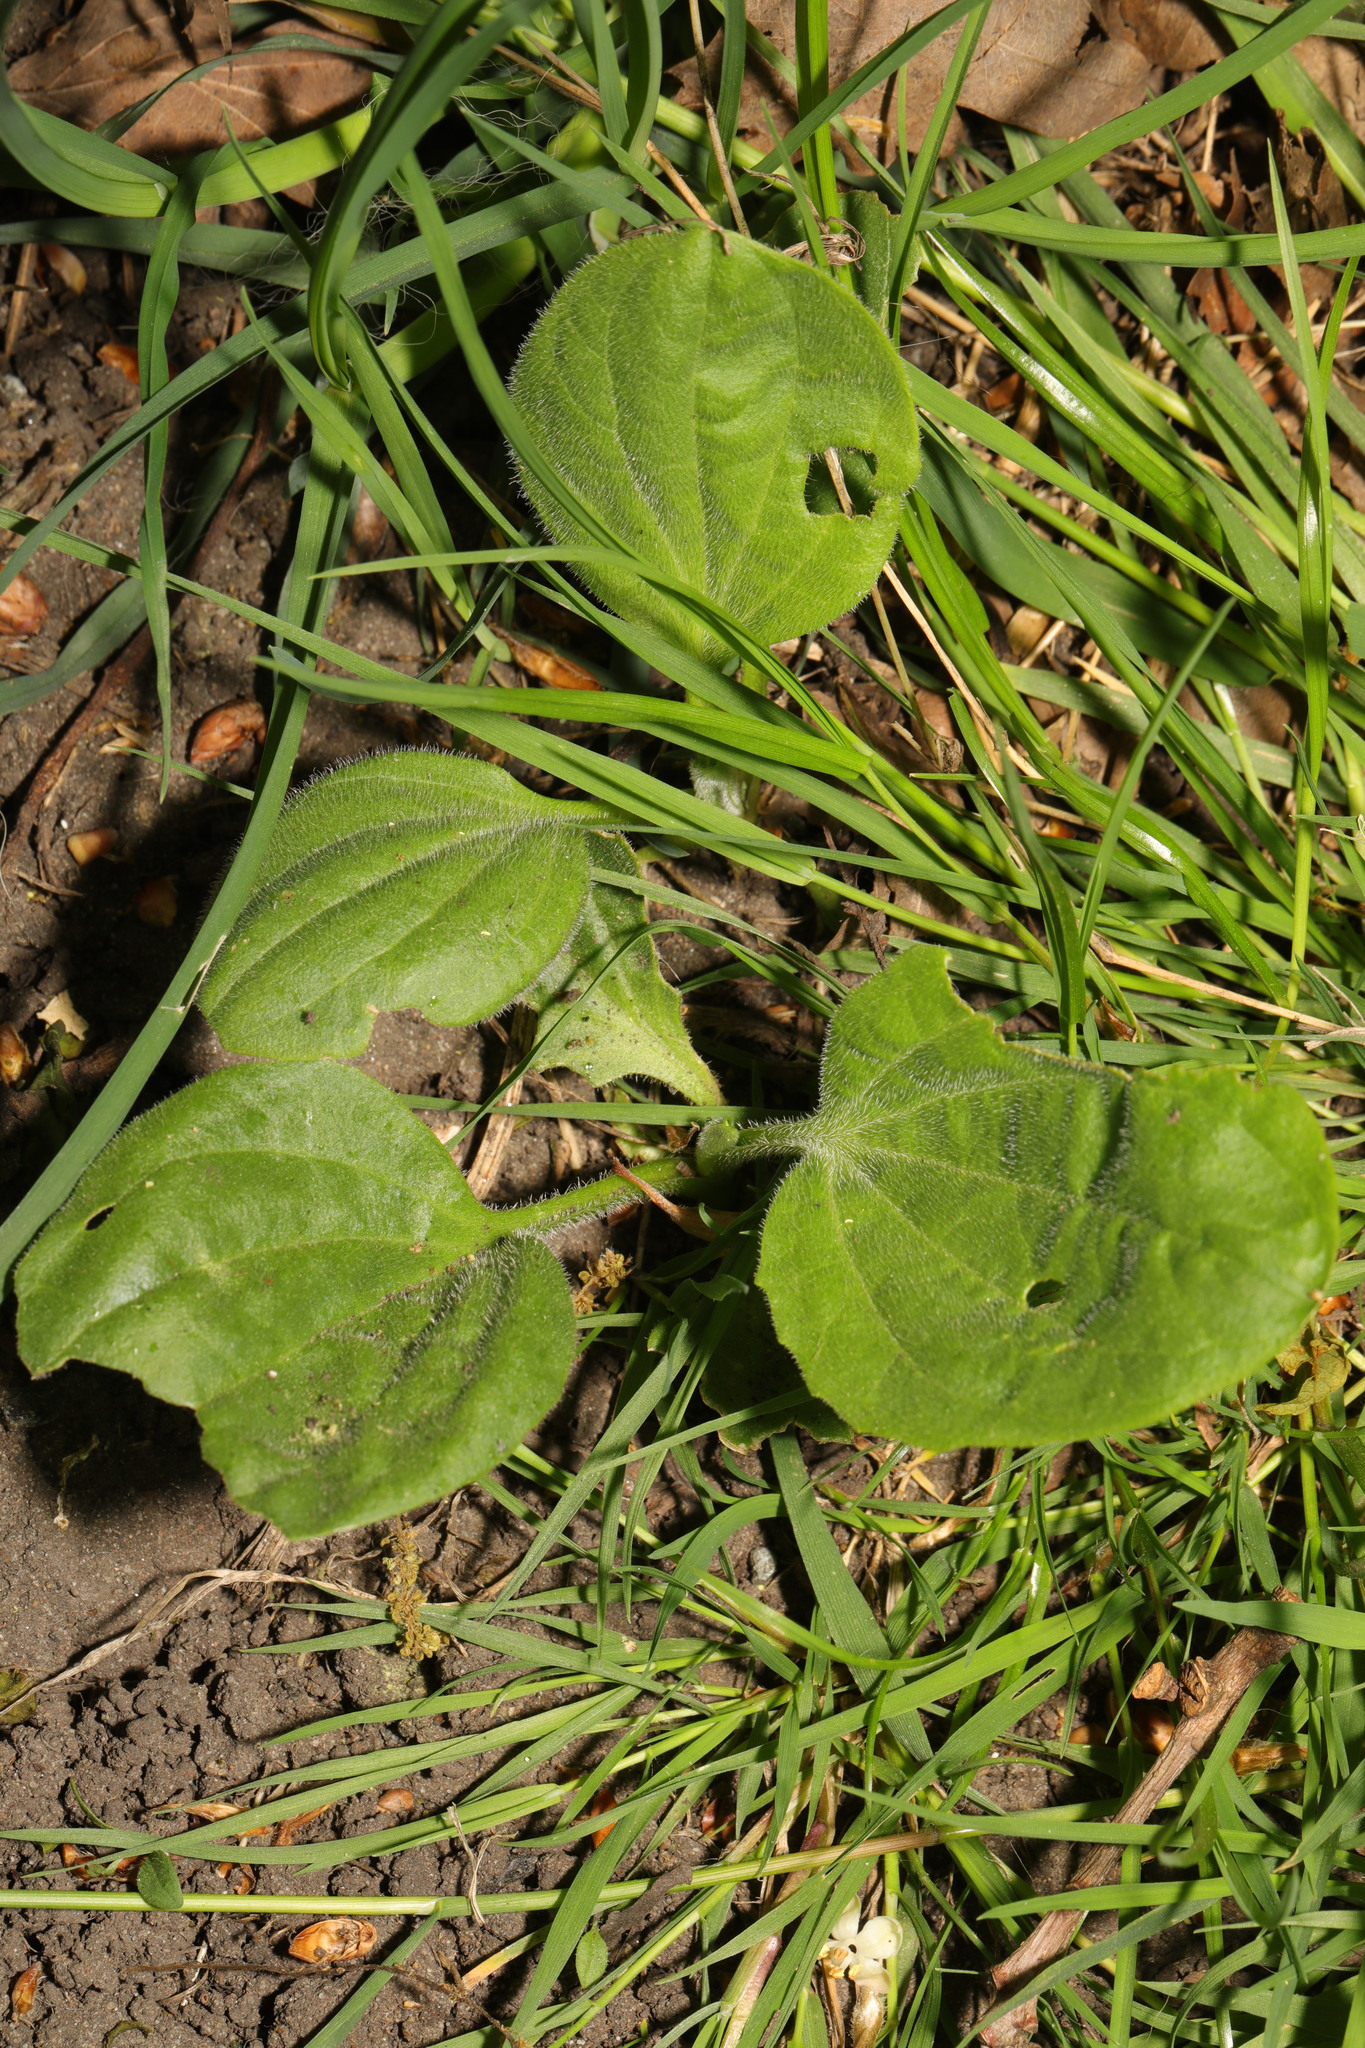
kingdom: Plantae
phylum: Tracheophyta
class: Magnoliopsida
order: Lamiales
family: Plantaginaceae
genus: Plantago
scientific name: Plantago major
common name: Common plantain
